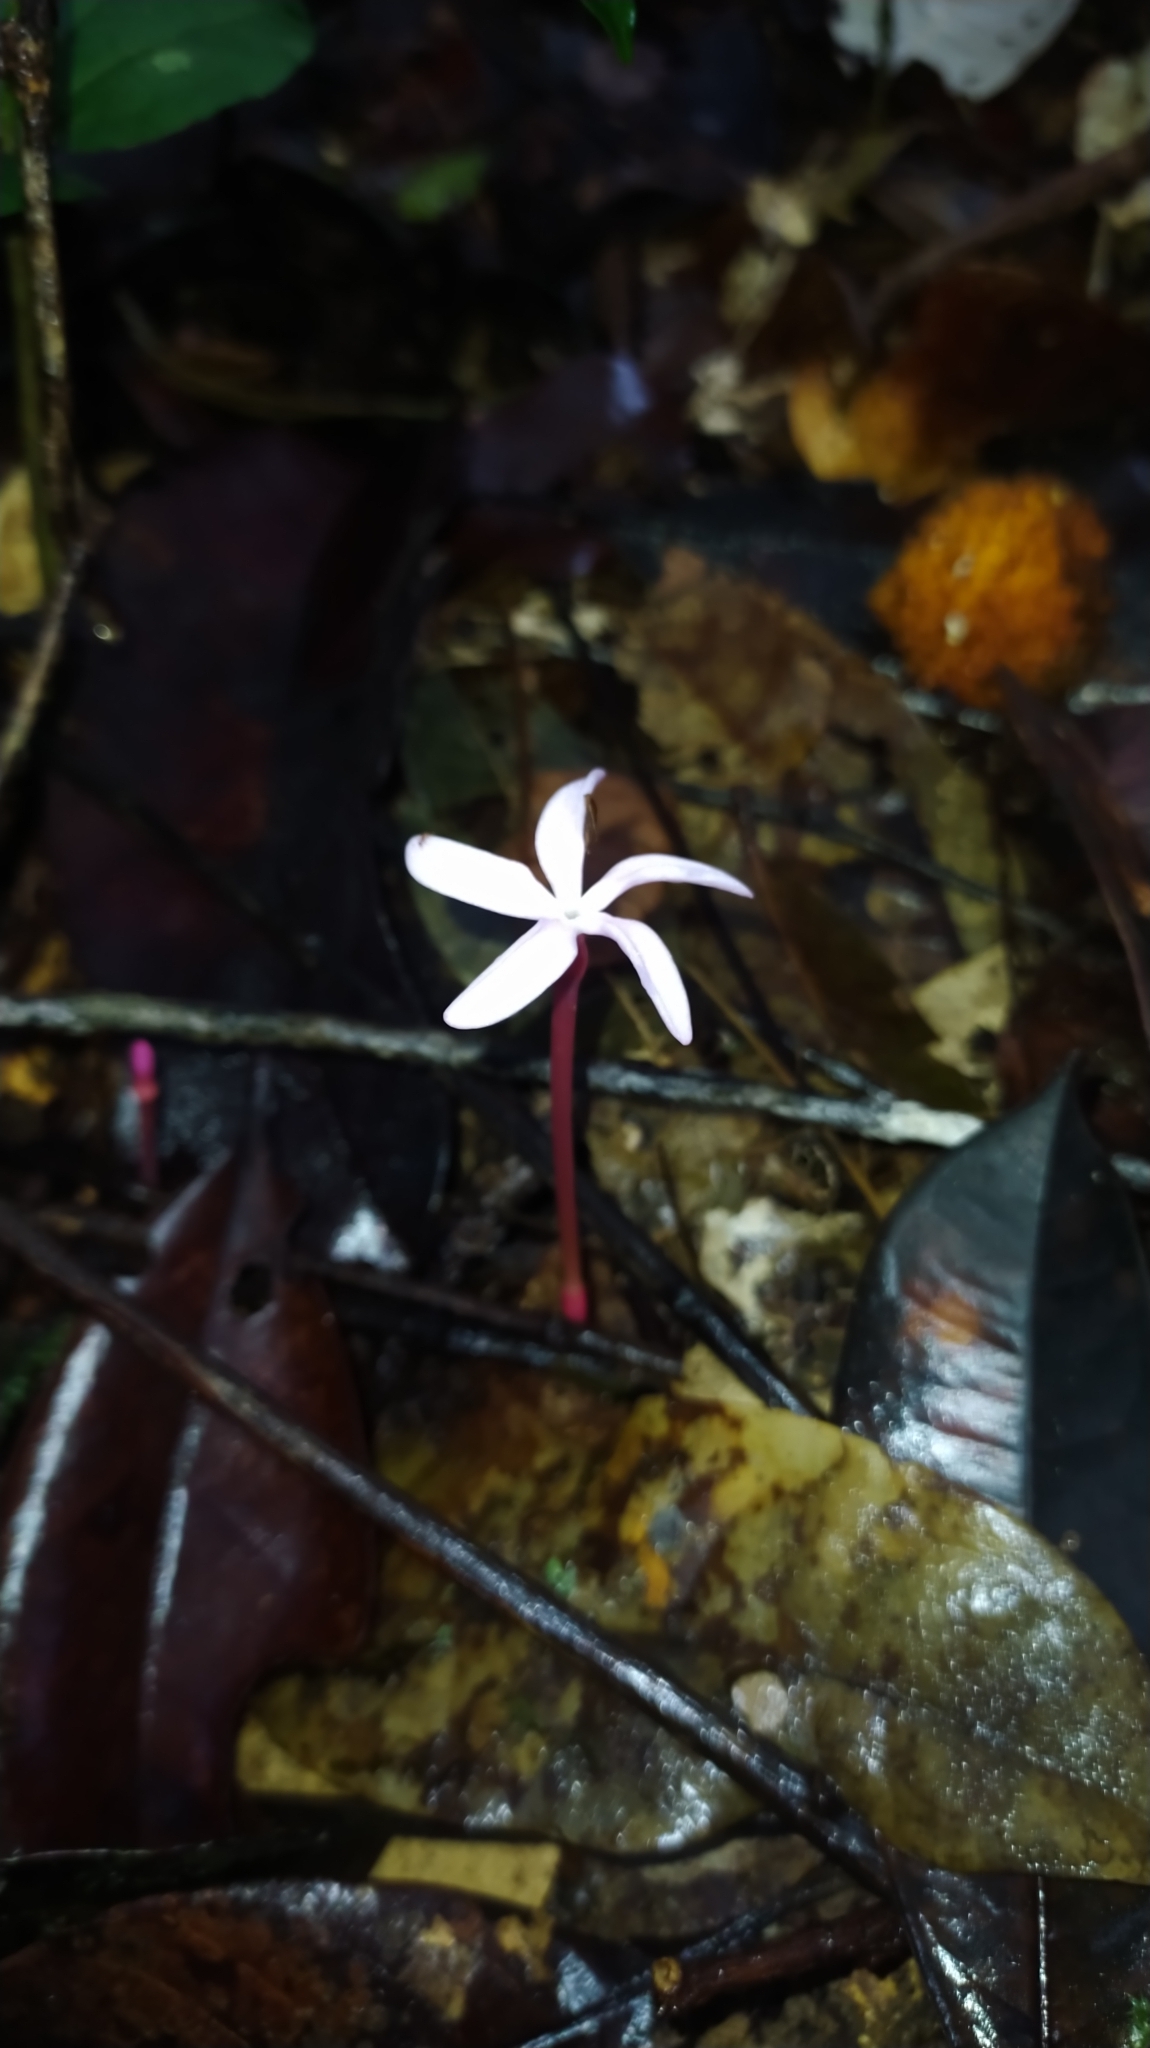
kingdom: Plantae
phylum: Tracheophyta
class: Magnoliopsida
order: Gentianales
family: Gentianaceae
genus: Voyria
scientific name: Voyria rosea
